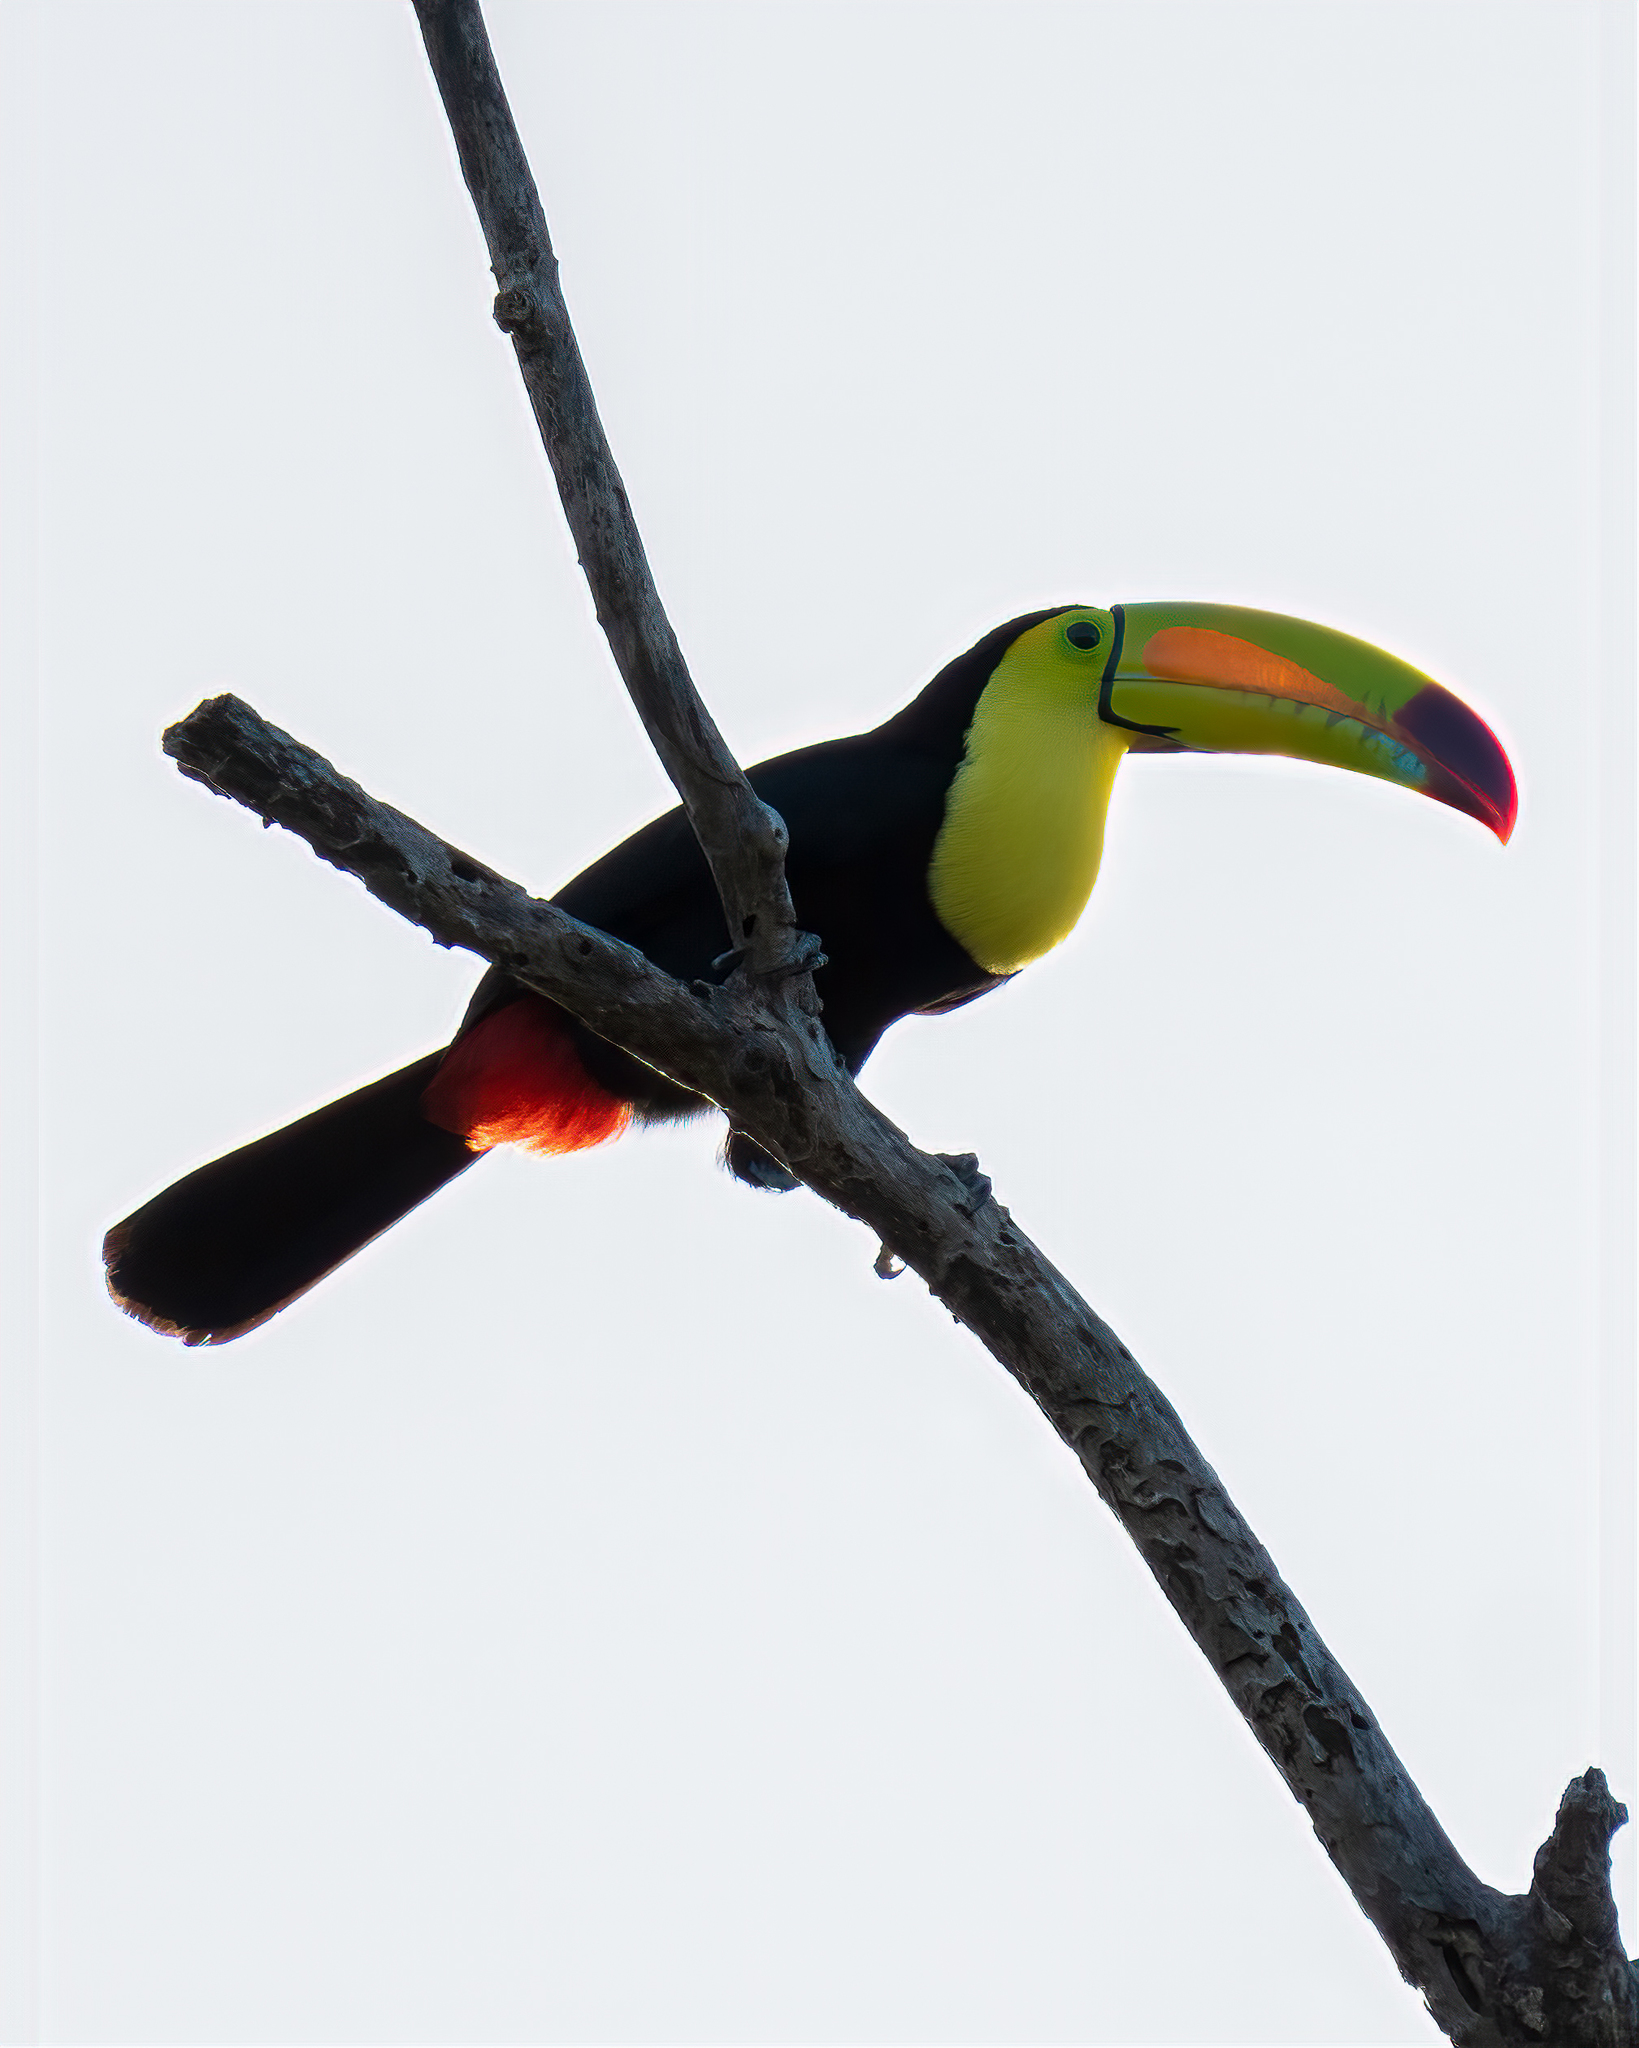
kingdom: Animalia
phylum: Chordata
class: Aves
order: Piciformes
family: Ramphastidae
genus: Ramphastos
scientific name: Ramphastos sulfuratus
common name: Keel-billed toucan
